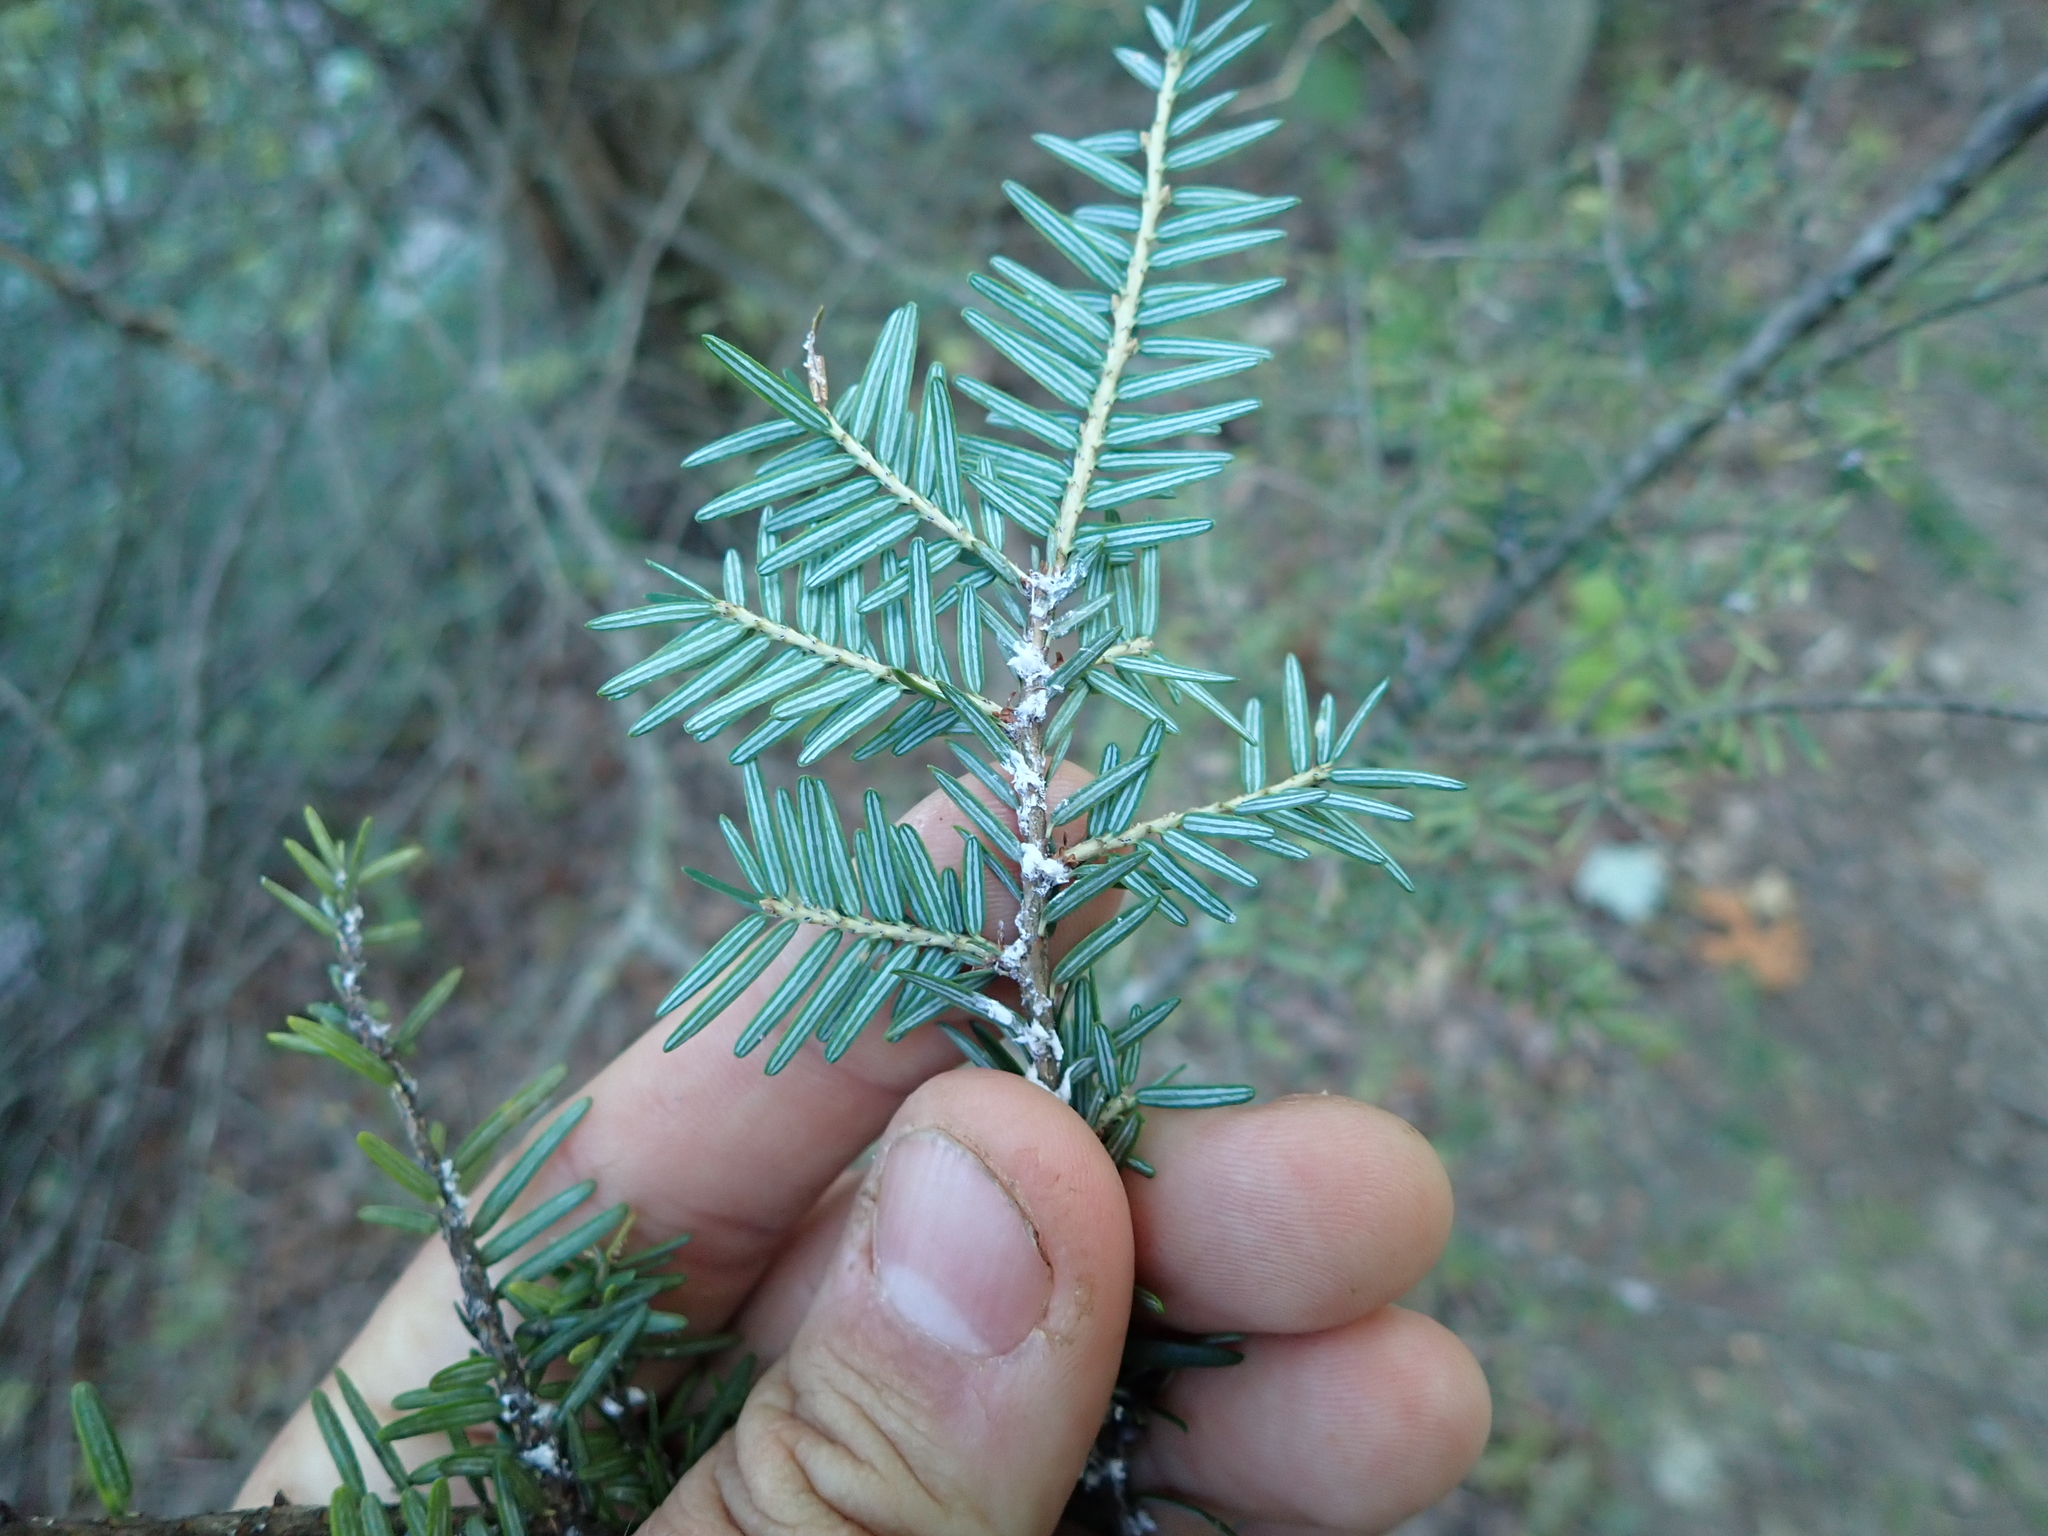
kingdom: Animalia
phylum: Arthropoda
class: Insecta
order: Hemiptera
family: Adelgidae
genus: Adelges
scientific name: Adelges tsugae
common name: Hemlock woolly adelgid
